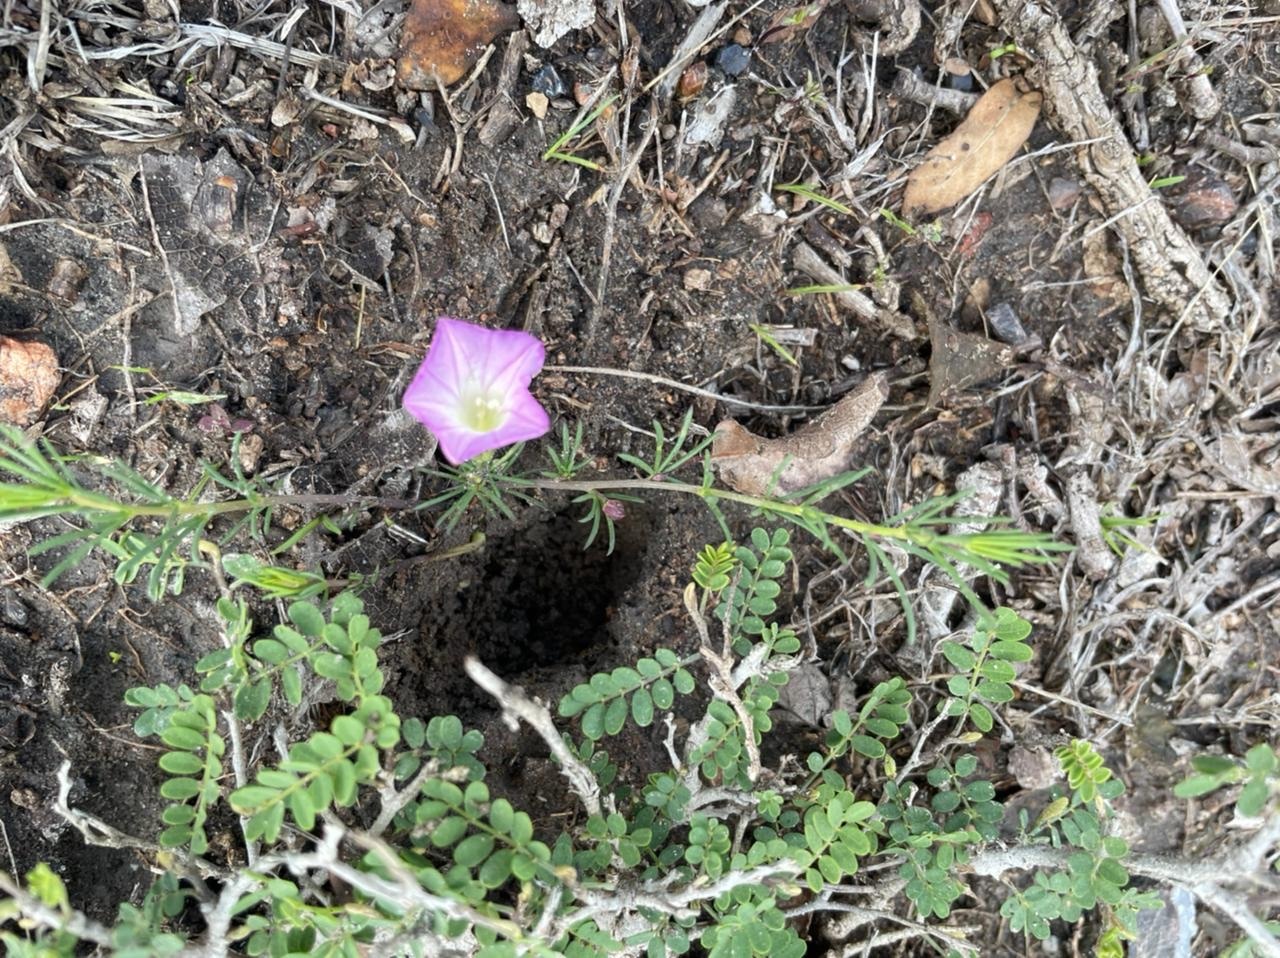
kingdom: Plantae
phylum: Tracheophyta
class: Magnoliopsida
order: Solanales
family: Convolvulaceae
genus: Ipomoea
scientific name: Ipomoea capillacea
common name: Purple morning-glory
